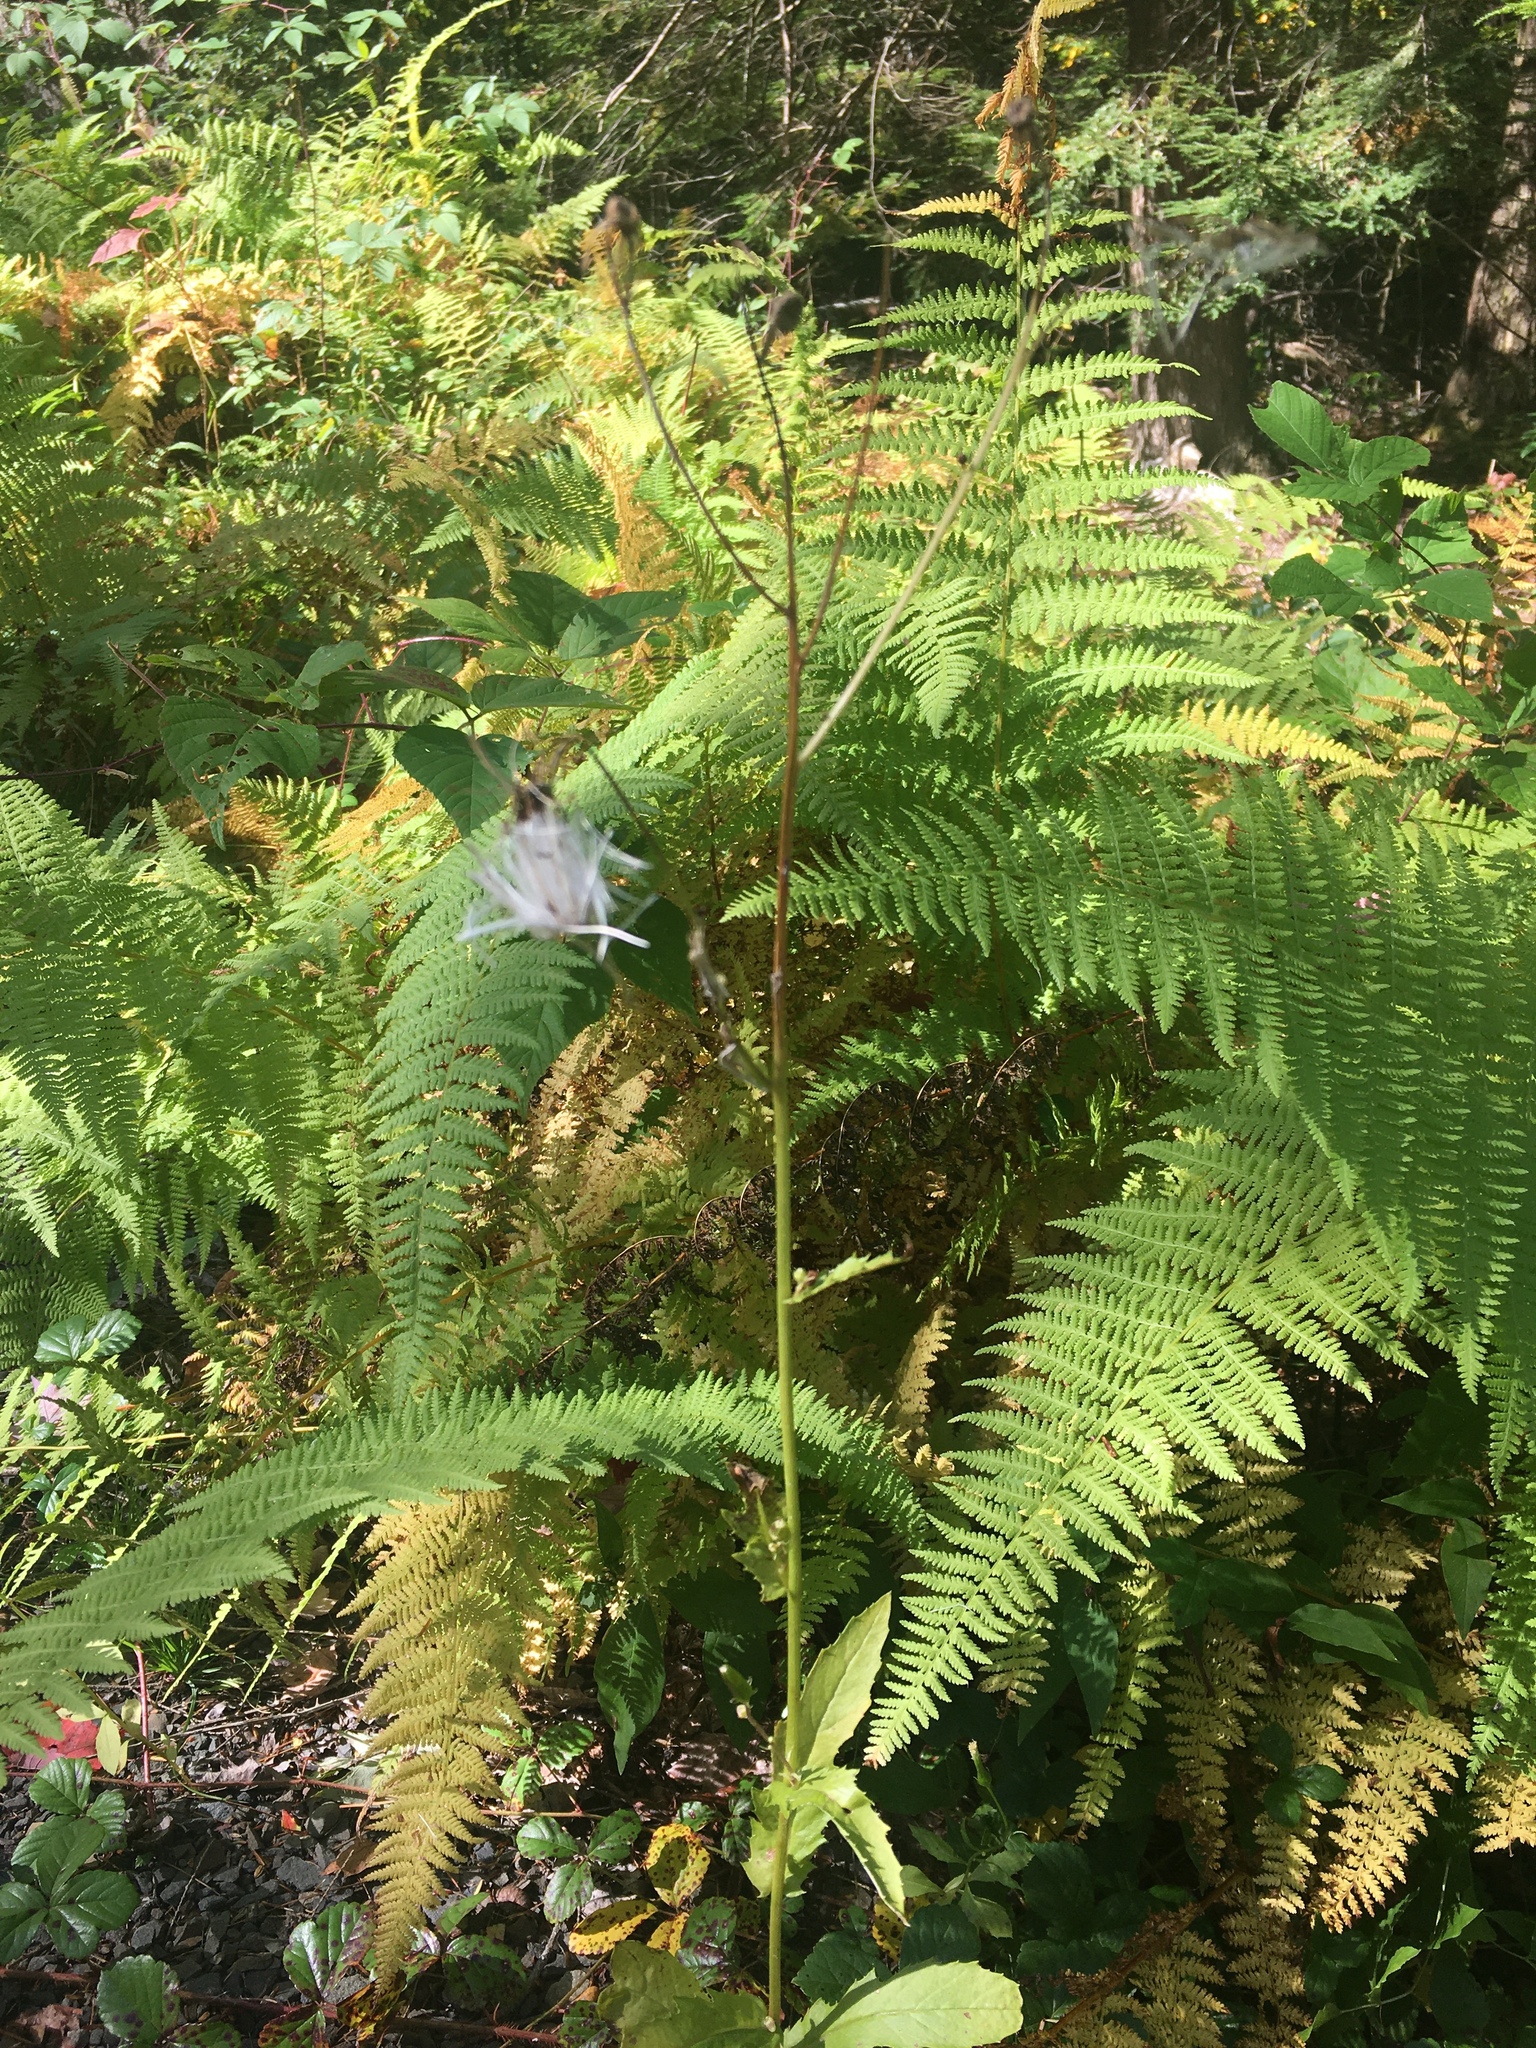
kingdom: Plantae
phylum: Tracheophyta
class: Polypodiopsida
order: Polypodiales
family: Dennstaedtiaceae
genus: Sitobolium
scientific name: Sitobolium punctilobum
